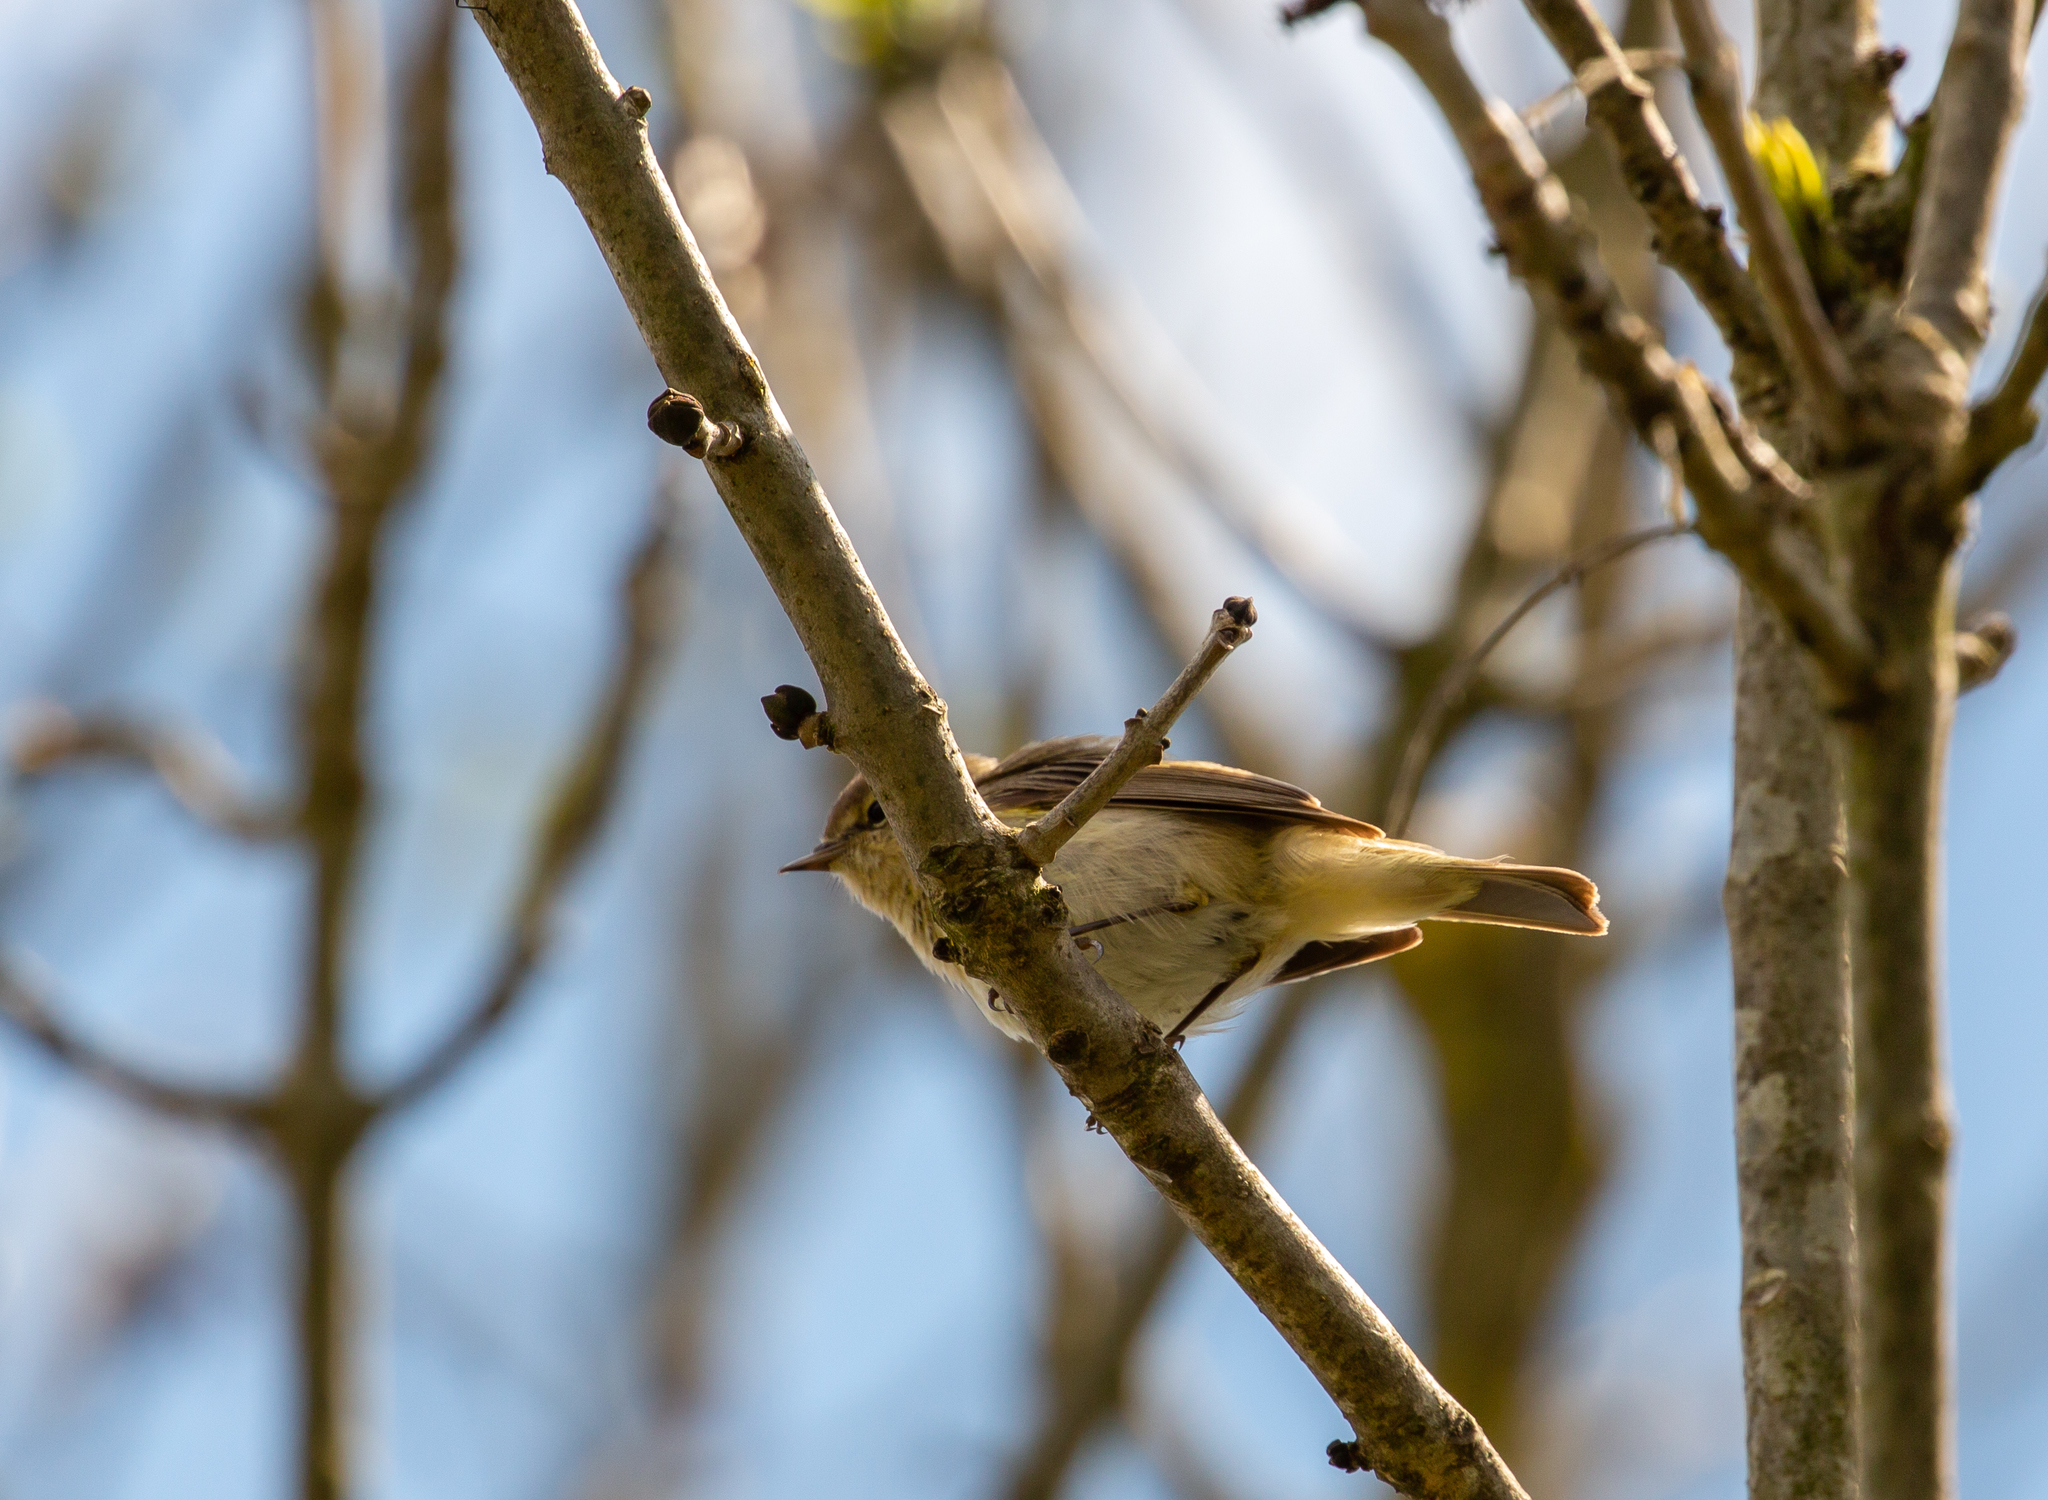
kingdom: Animalia
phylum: Chordata
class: Aves
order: Passeriformes
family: Phylloscopidae
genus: Phylloscopus
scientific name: Phylloscopus collybita
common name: Common chiffchaff
